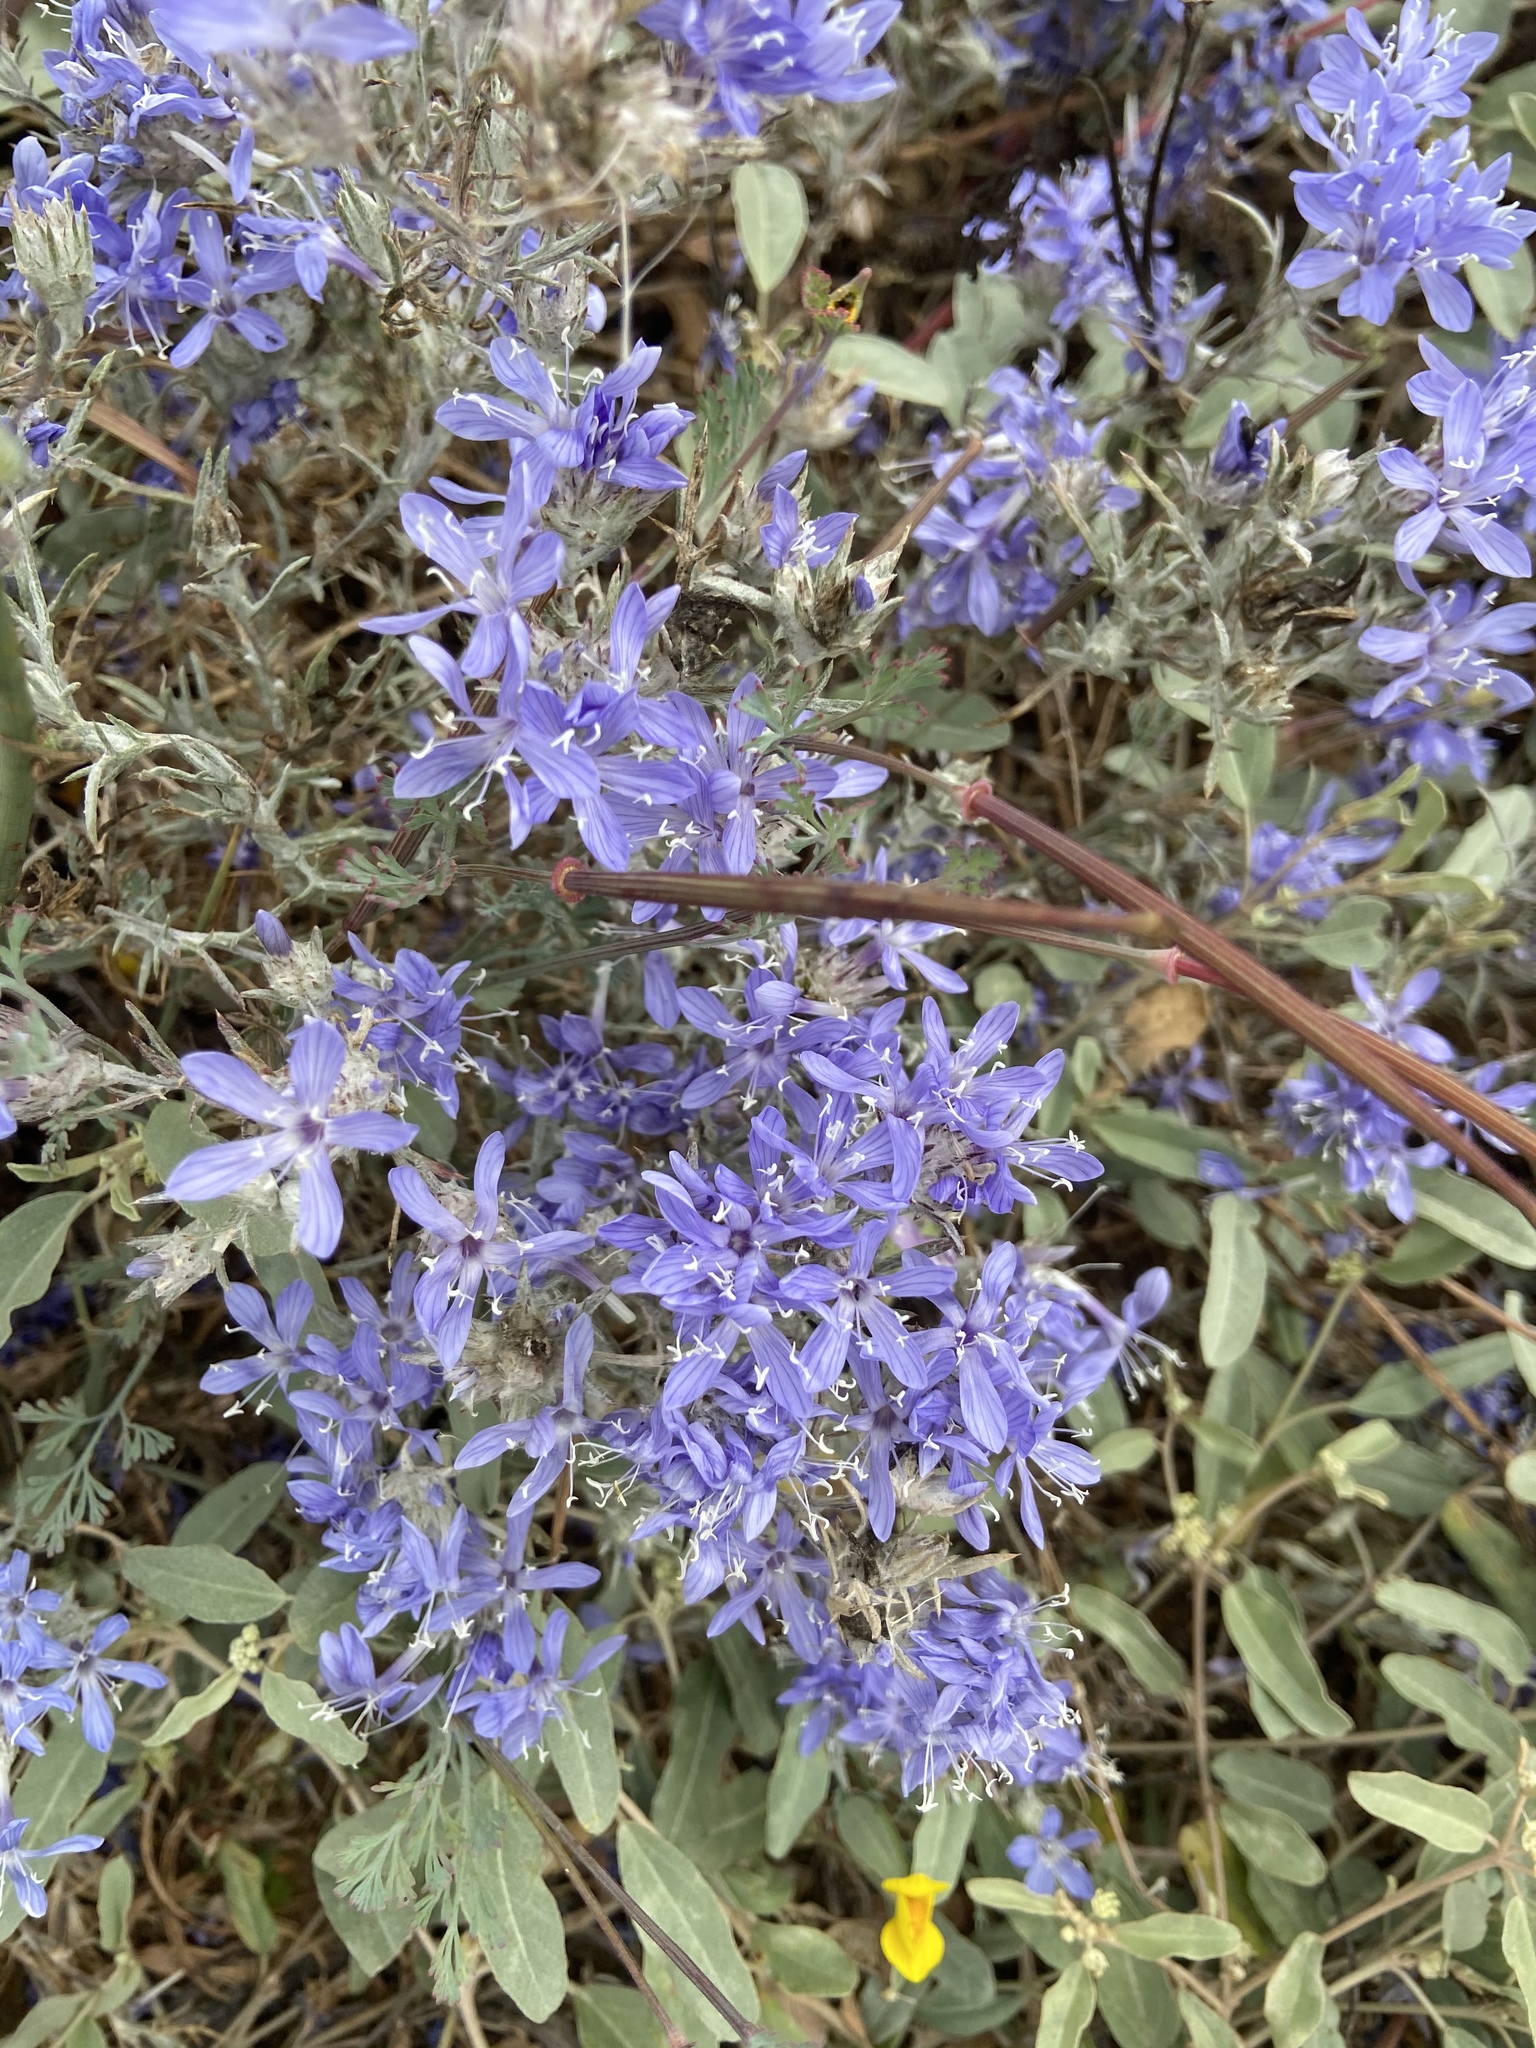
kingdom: Plantae
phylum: Tracheophyta
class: Magnoliopsida
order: Ericales
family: Polemoniaceae
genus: Eriastrum
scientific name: Eriastrum densifolium
